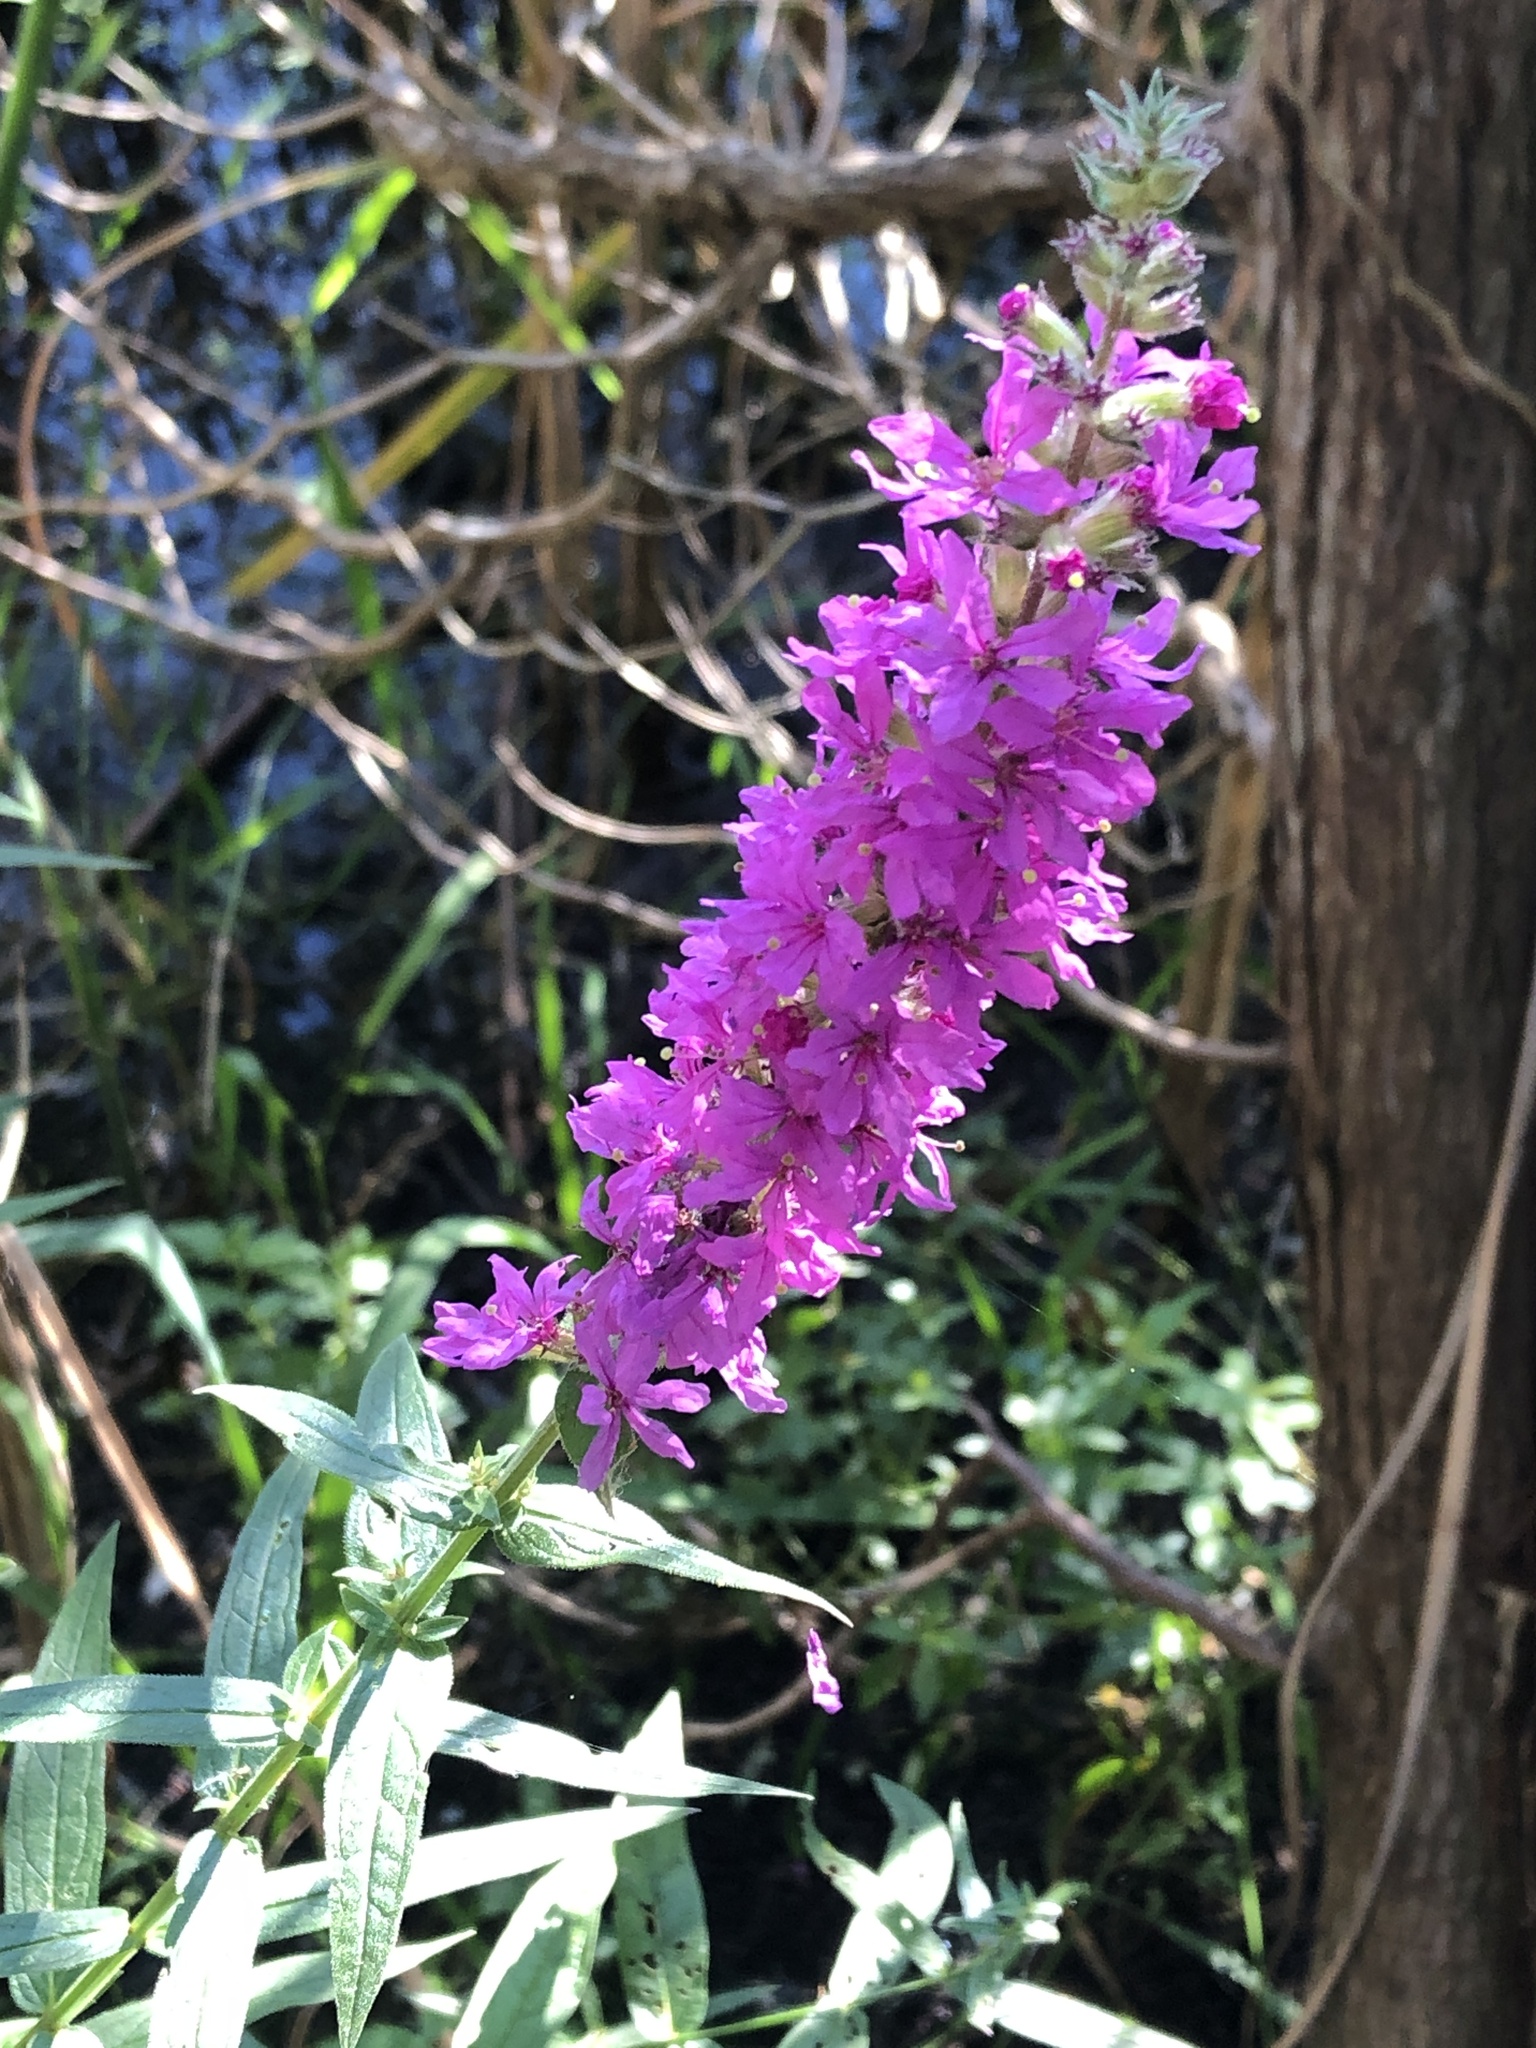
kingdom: Plantae
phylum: Tracheophyta
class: Magnoliopsida
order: Myrtales
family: Lythraceae
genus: Lythrum
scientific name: Lythrum salicaria
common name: Purple loosestrife
